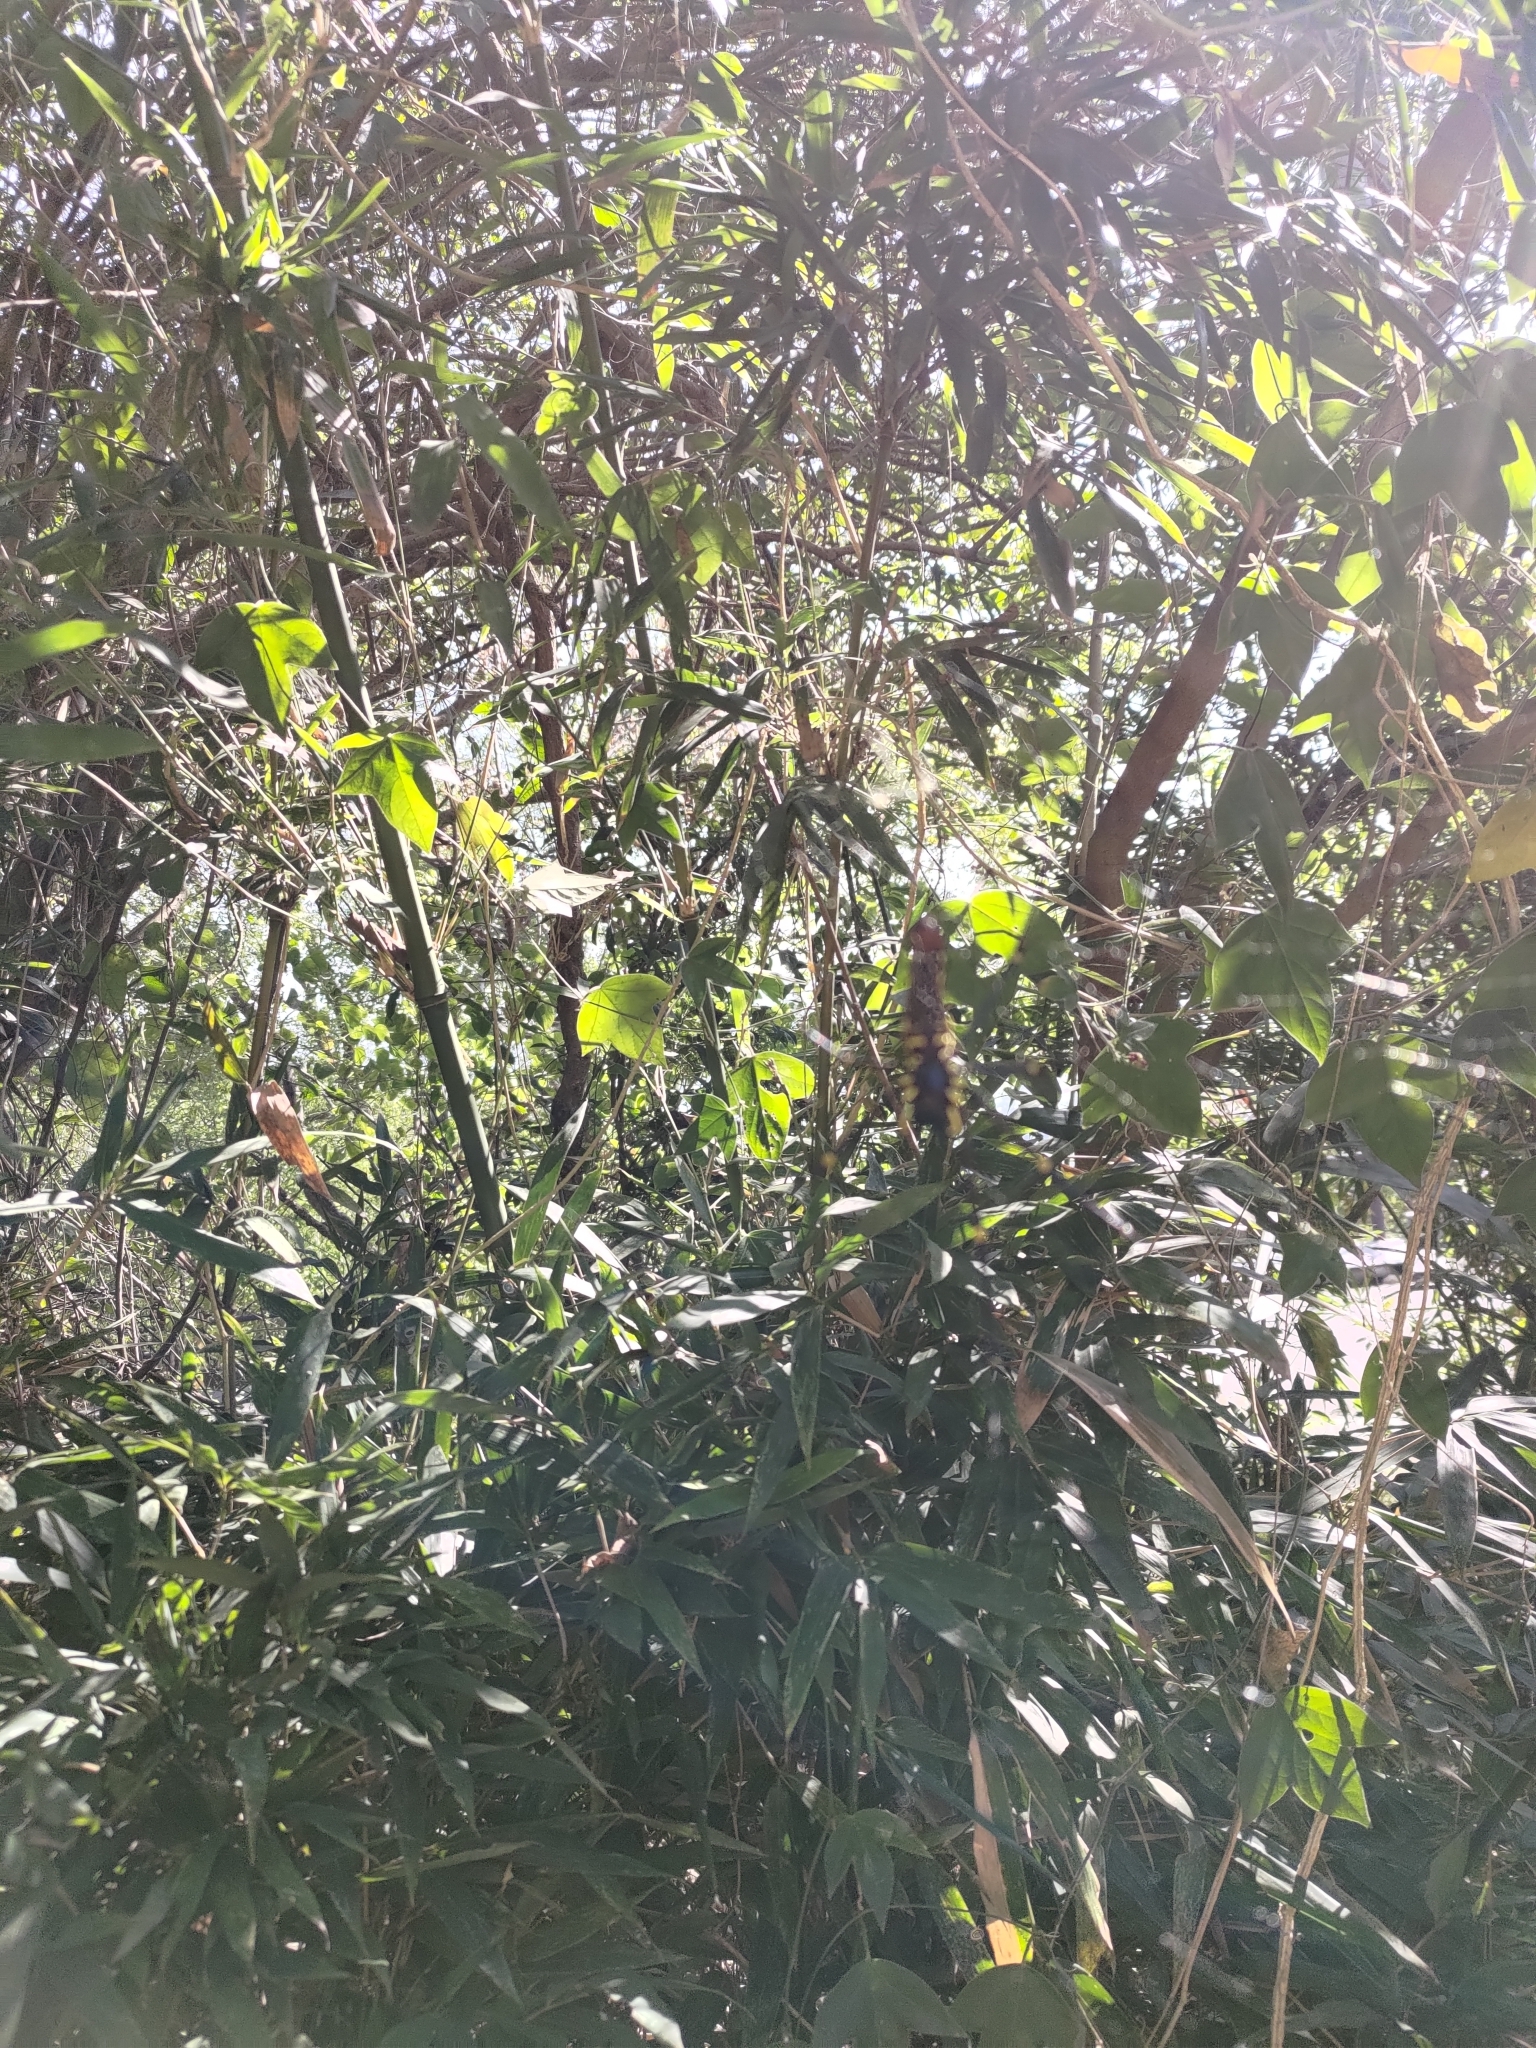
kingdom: Animalia
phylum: Arthropoda
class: Arachnida
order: Araneae
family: Araneidae
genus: Nephila
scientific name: Nephila pilipes
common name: Giant golden orb weaver
